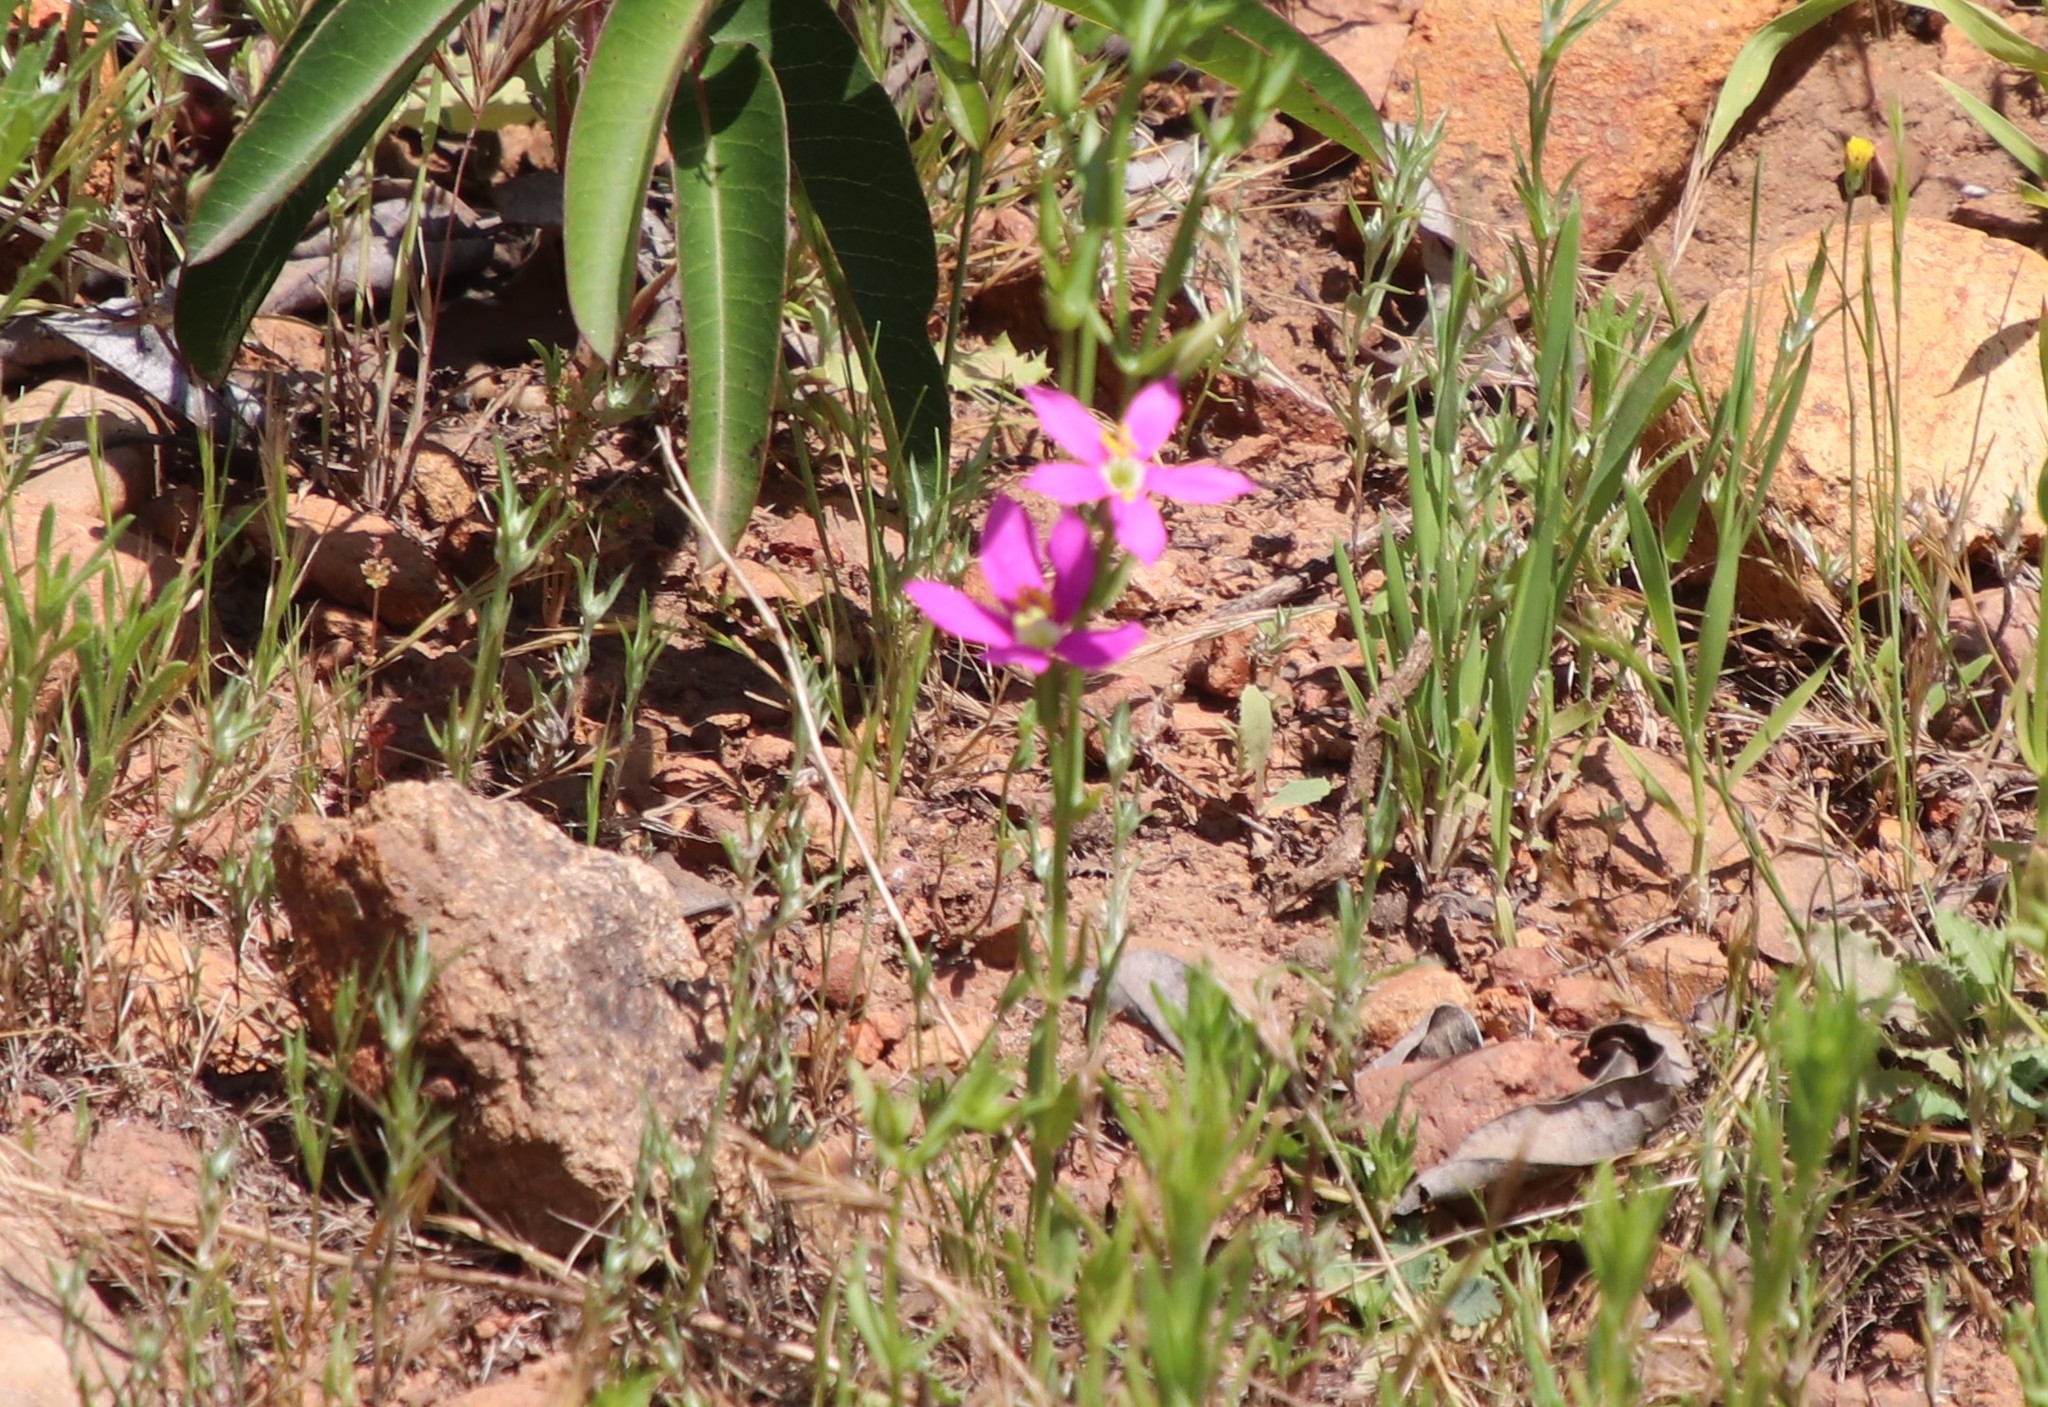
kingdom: Plantae
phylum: Tracheophyta
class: Magnoliopsida
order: Gentianales
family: Gentianaceae
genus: Zeltnera
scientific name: Zeltnera venusta
